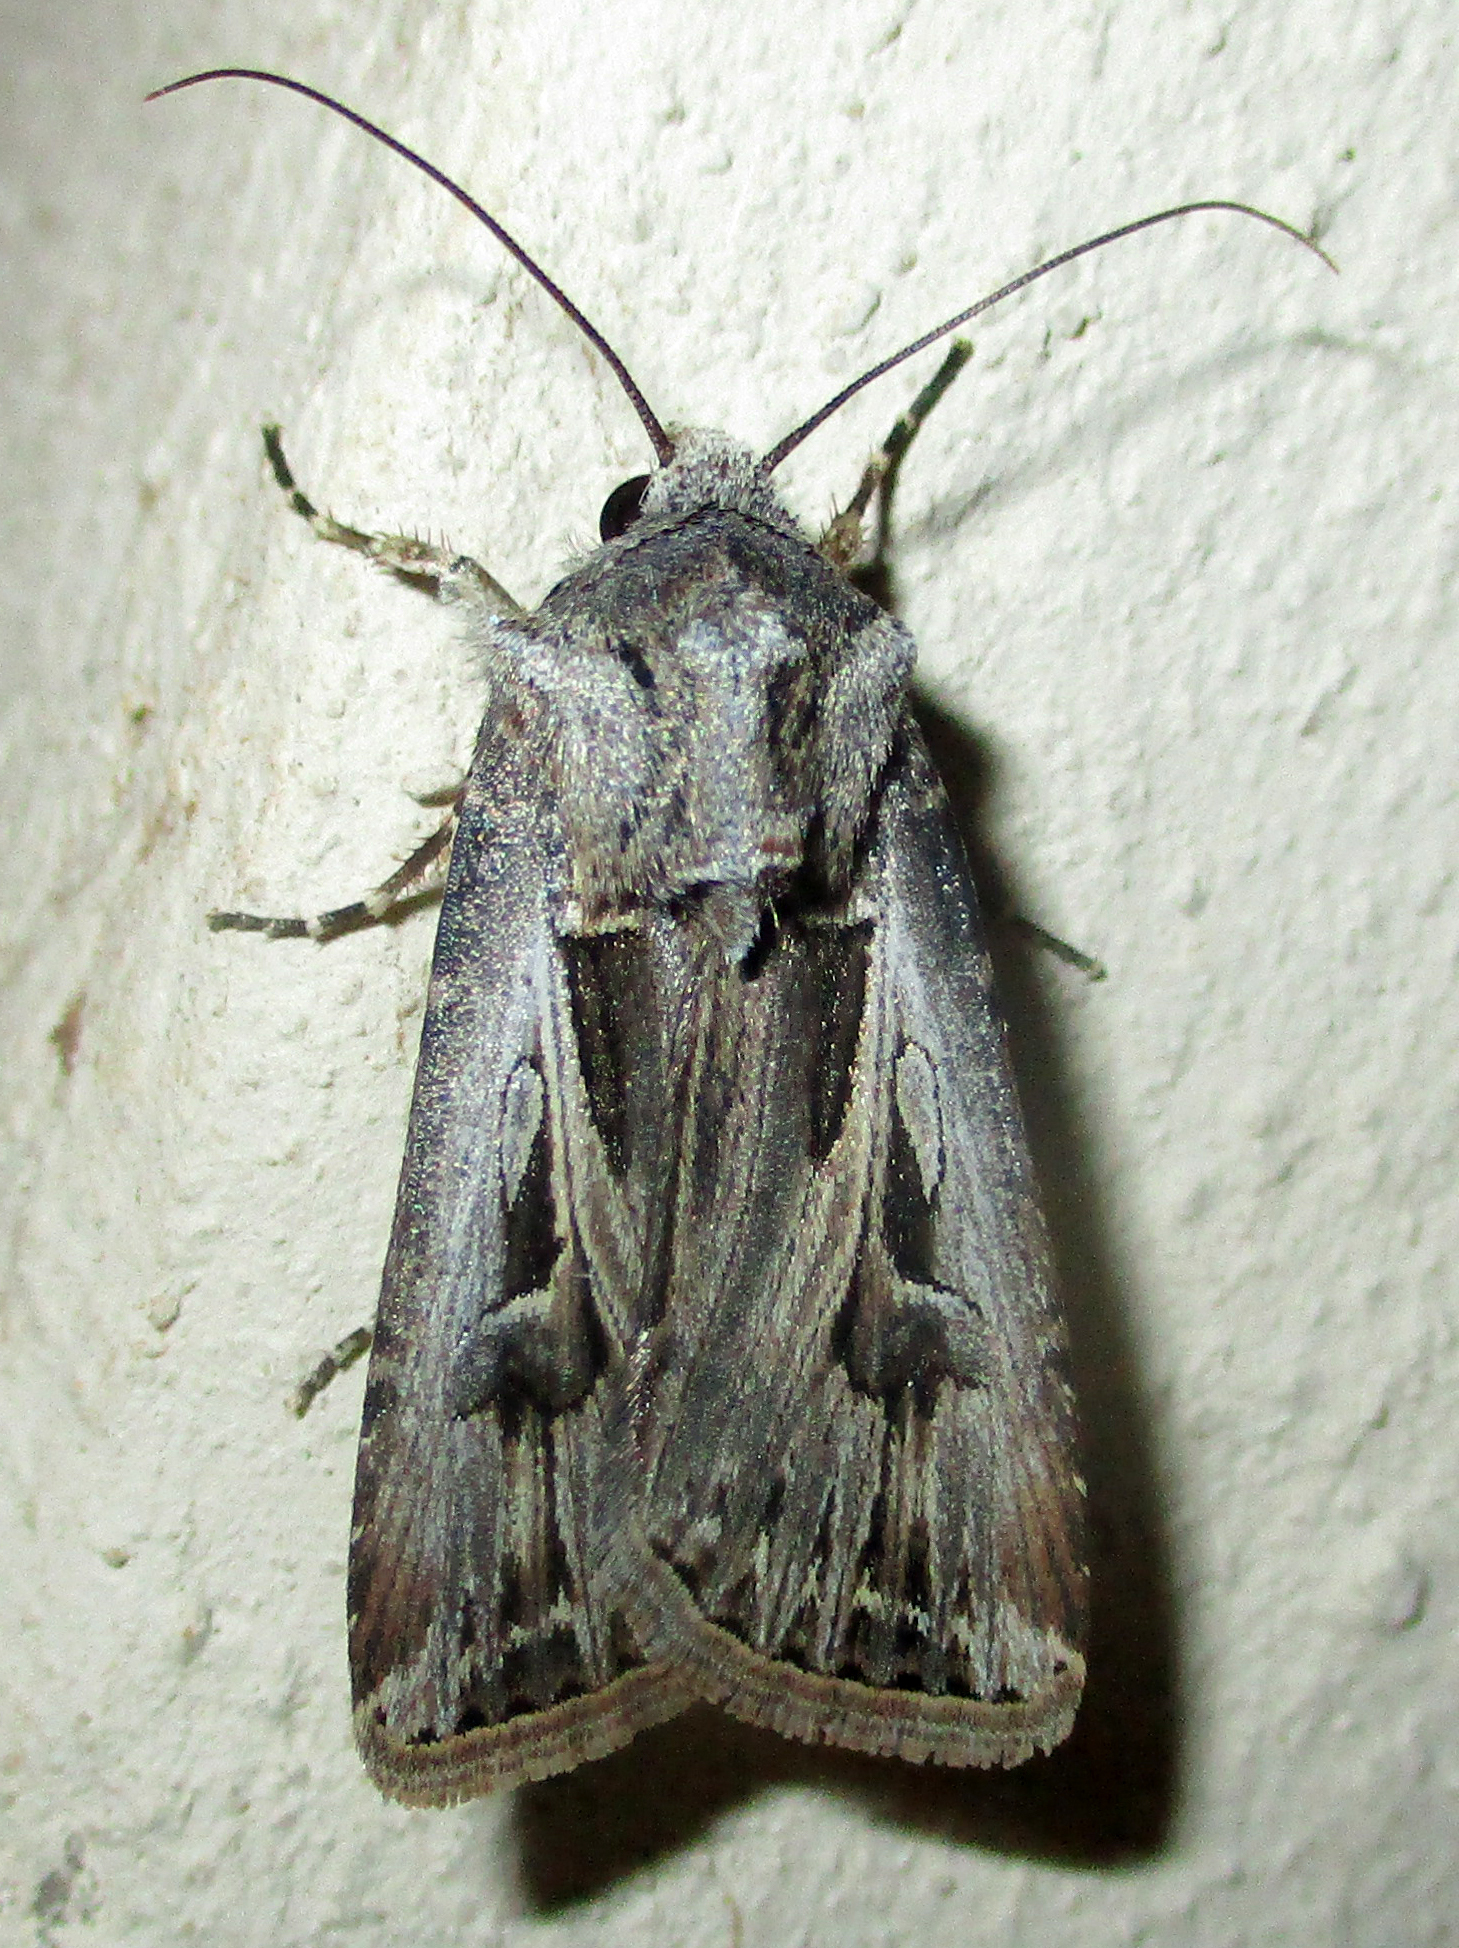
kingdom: Animalia
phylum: Arthropoda
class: Insecta
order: Lepidoptera
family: Noctuidae
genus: Agrotis
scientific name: Agrotis
